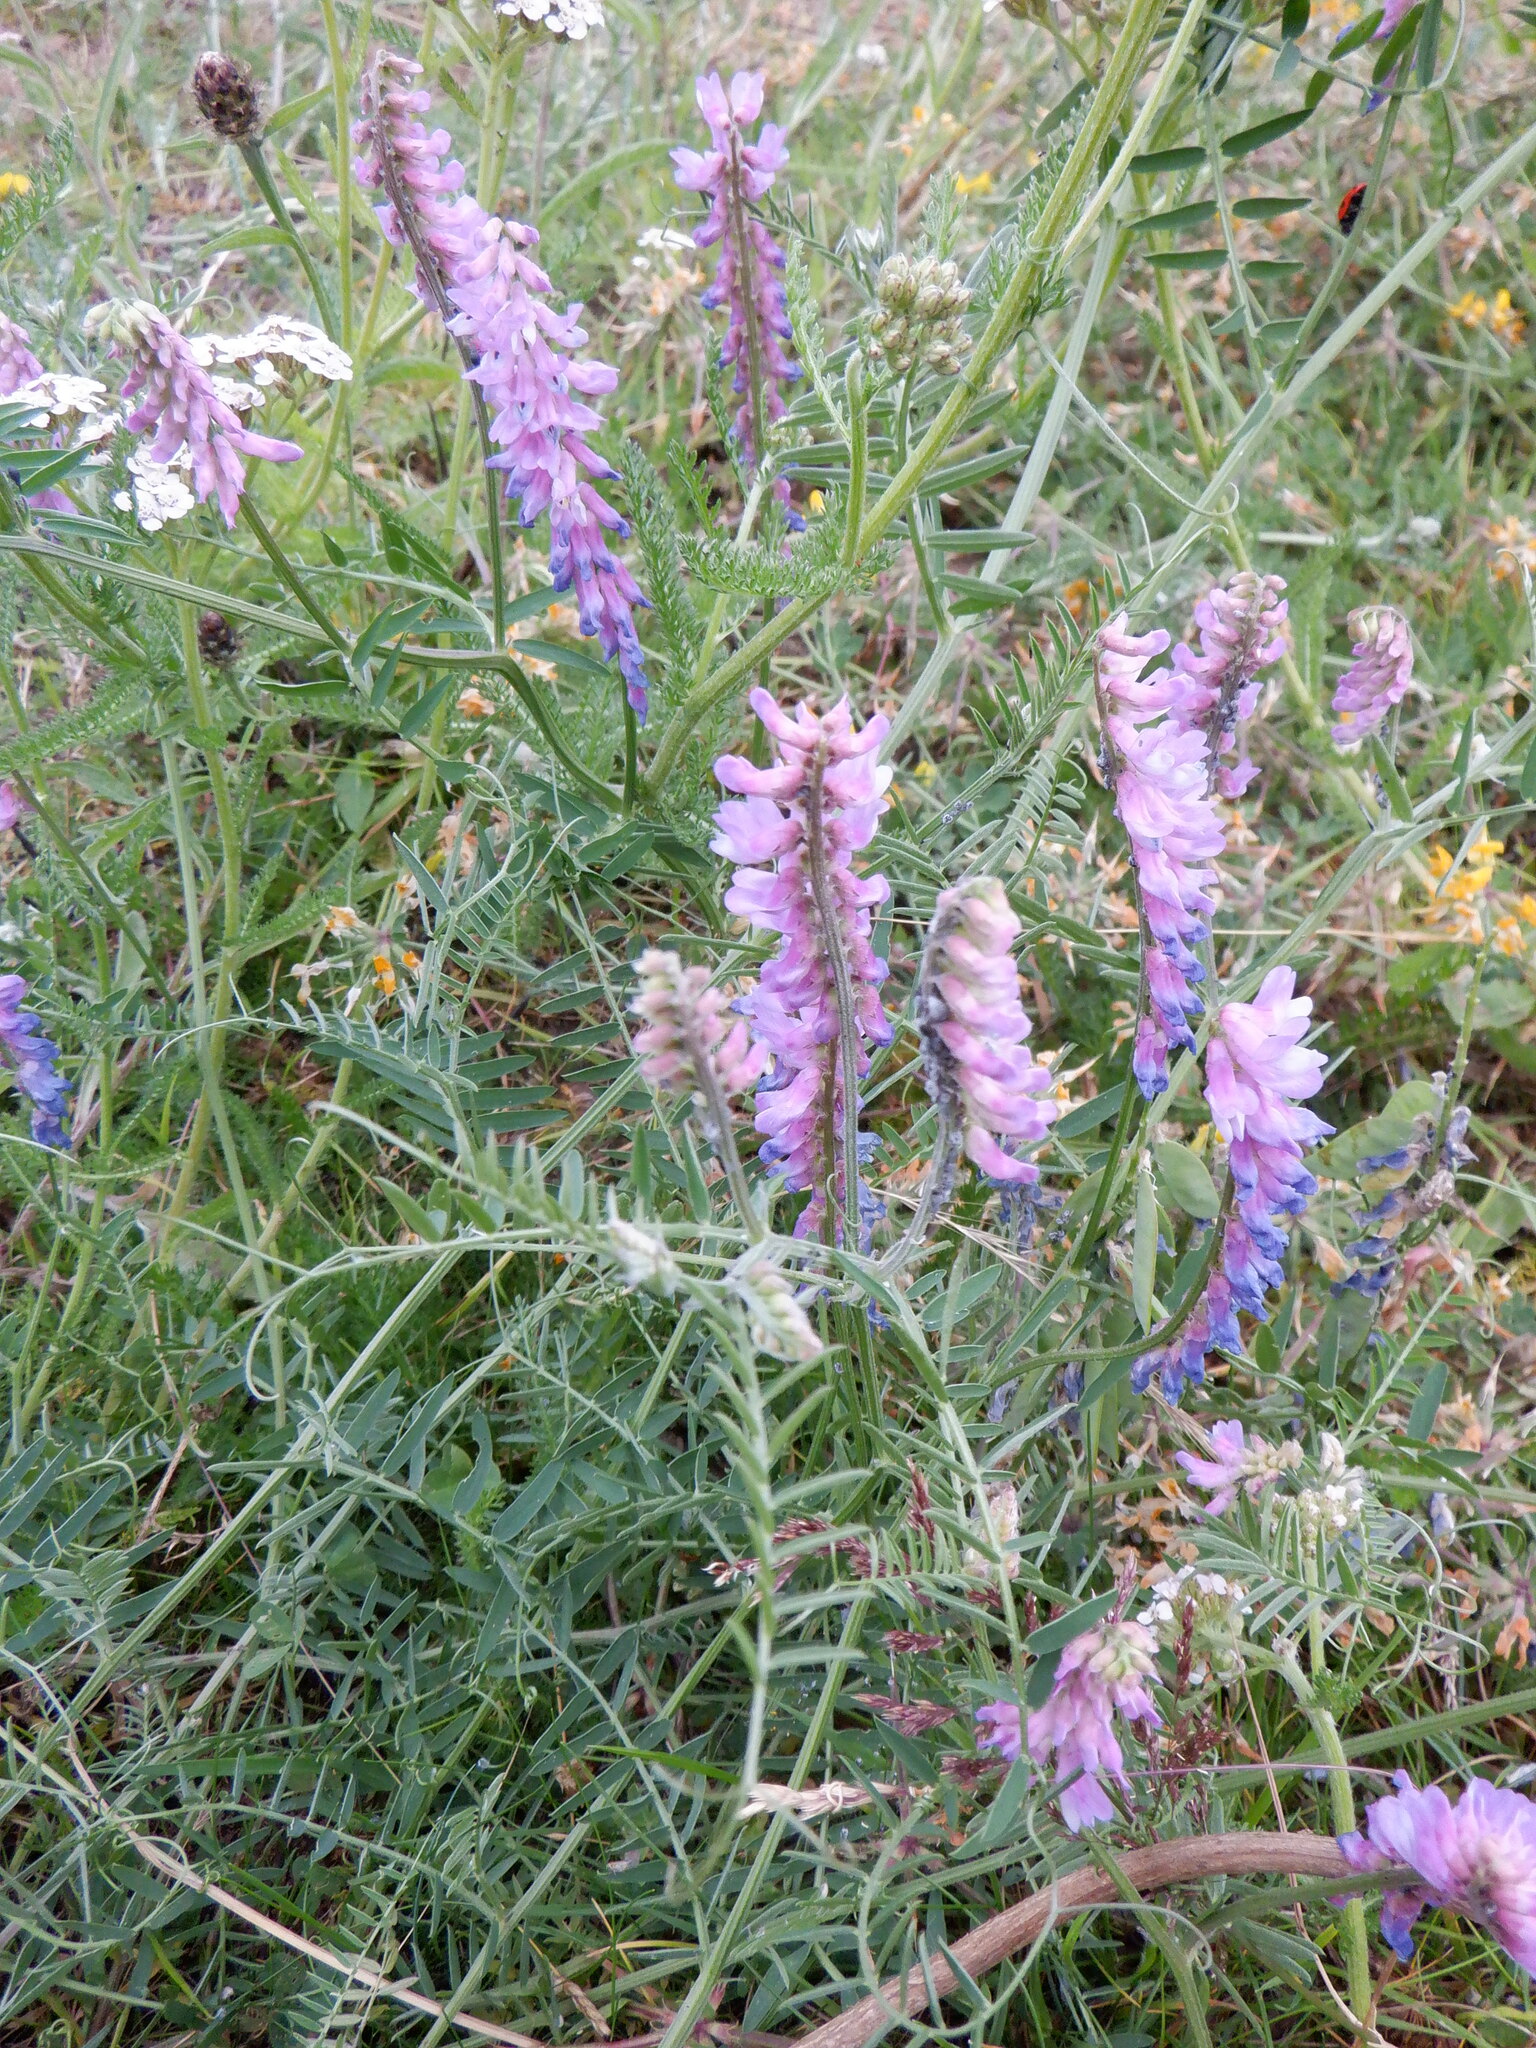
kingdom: Plantae
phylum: Tracheophyta
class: Magnoliopsida
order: Fabales
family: Fabaceae
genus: Vicia
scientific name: Vicia cracca
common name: Bird vetch
